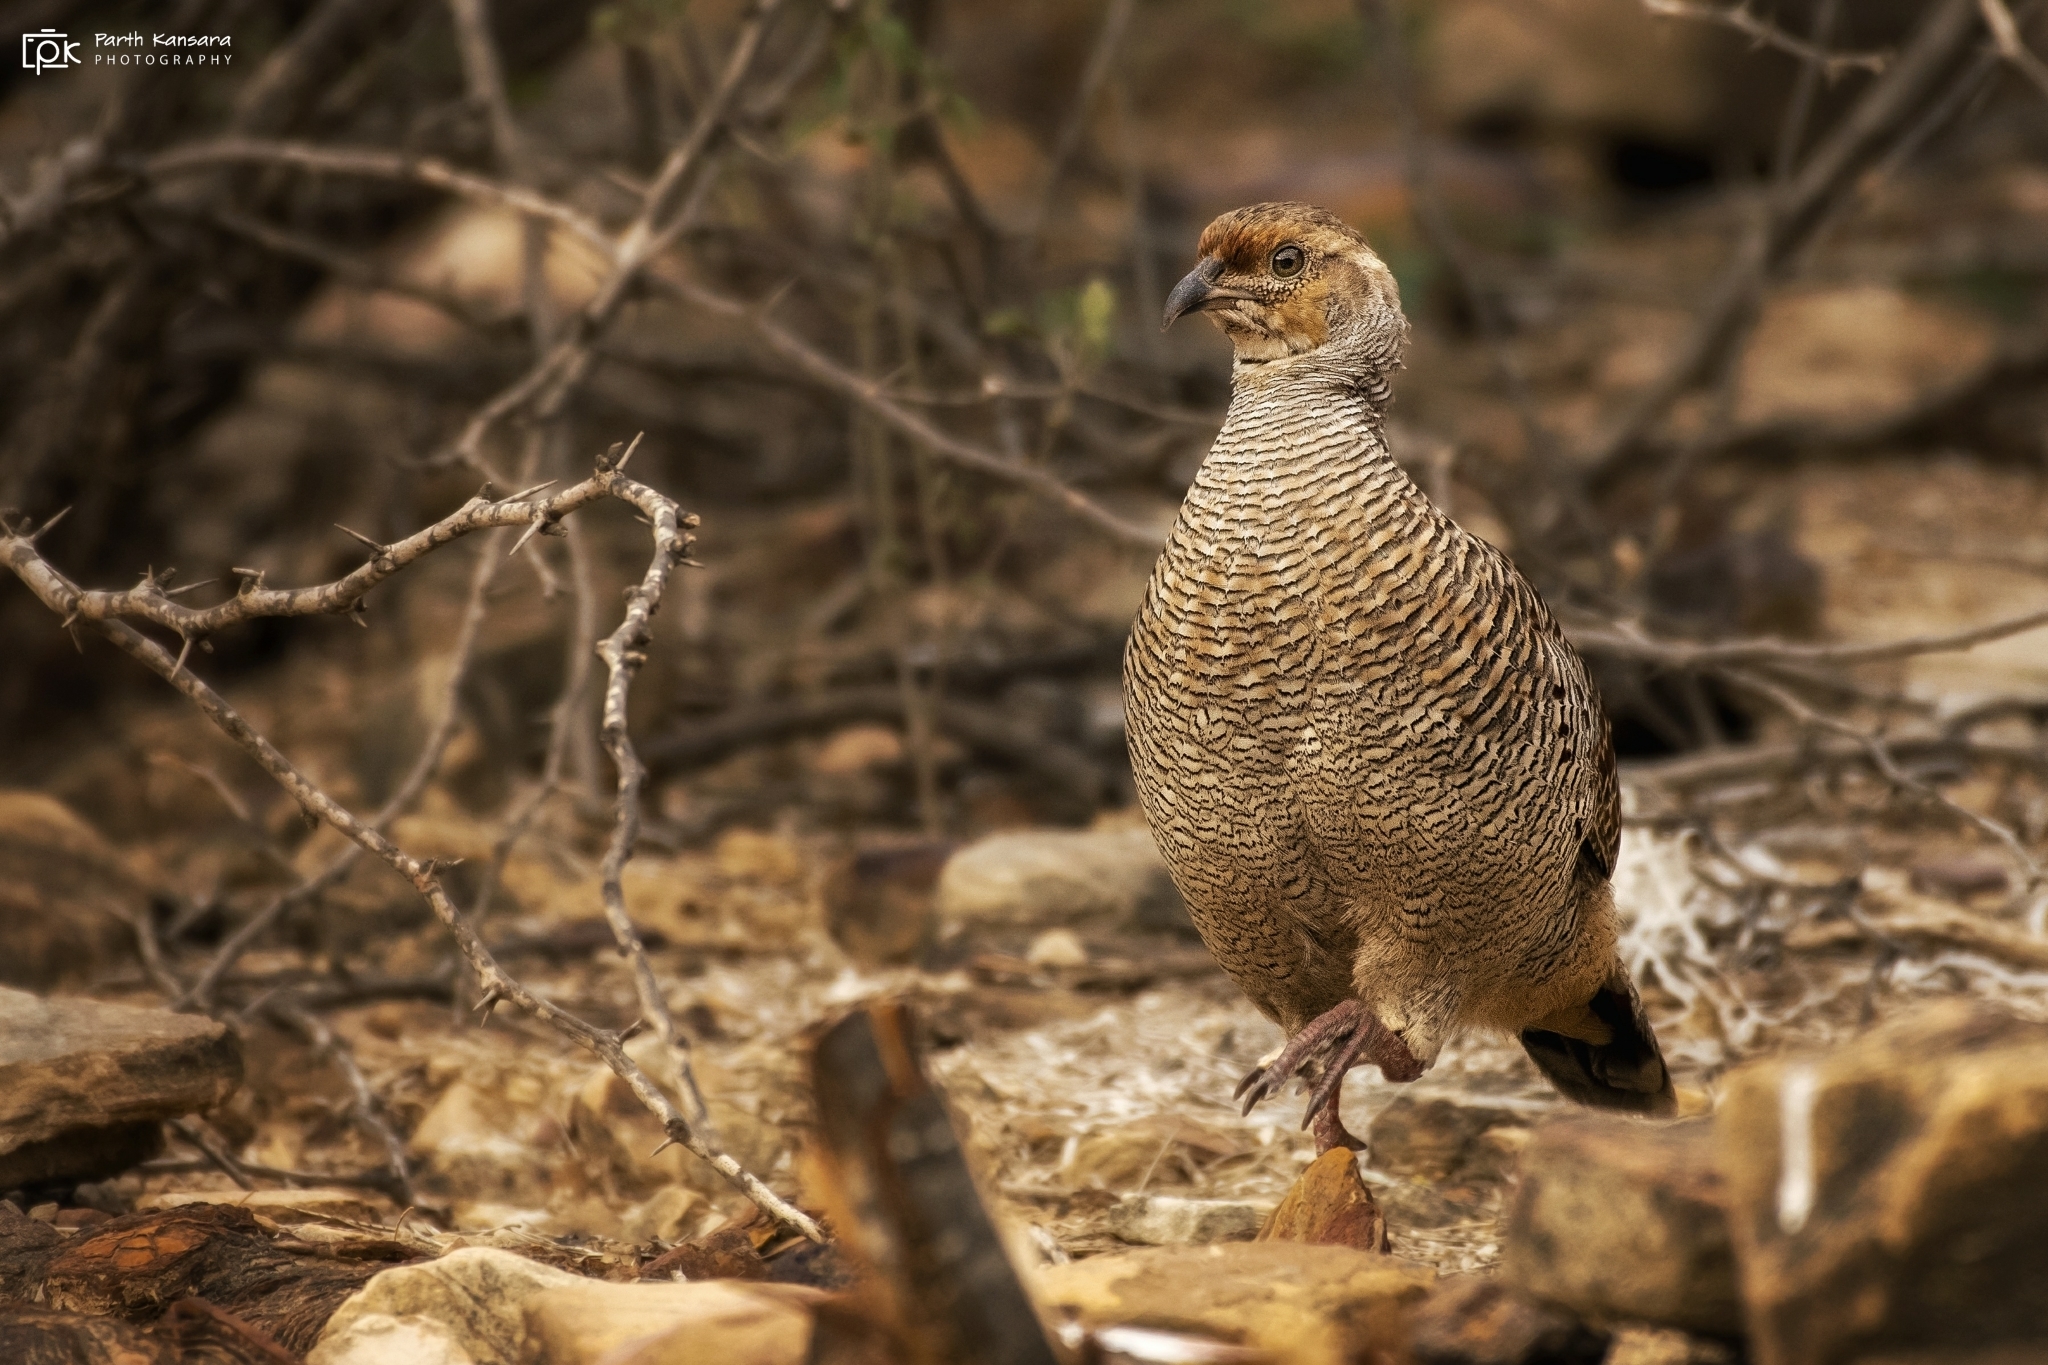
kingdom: Animalia
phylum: Chordata
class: Aves
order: Galliformes
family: Phasianidae
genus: Ortygornis
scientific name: Ortygornis pondicerianus
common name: Grey francolin
